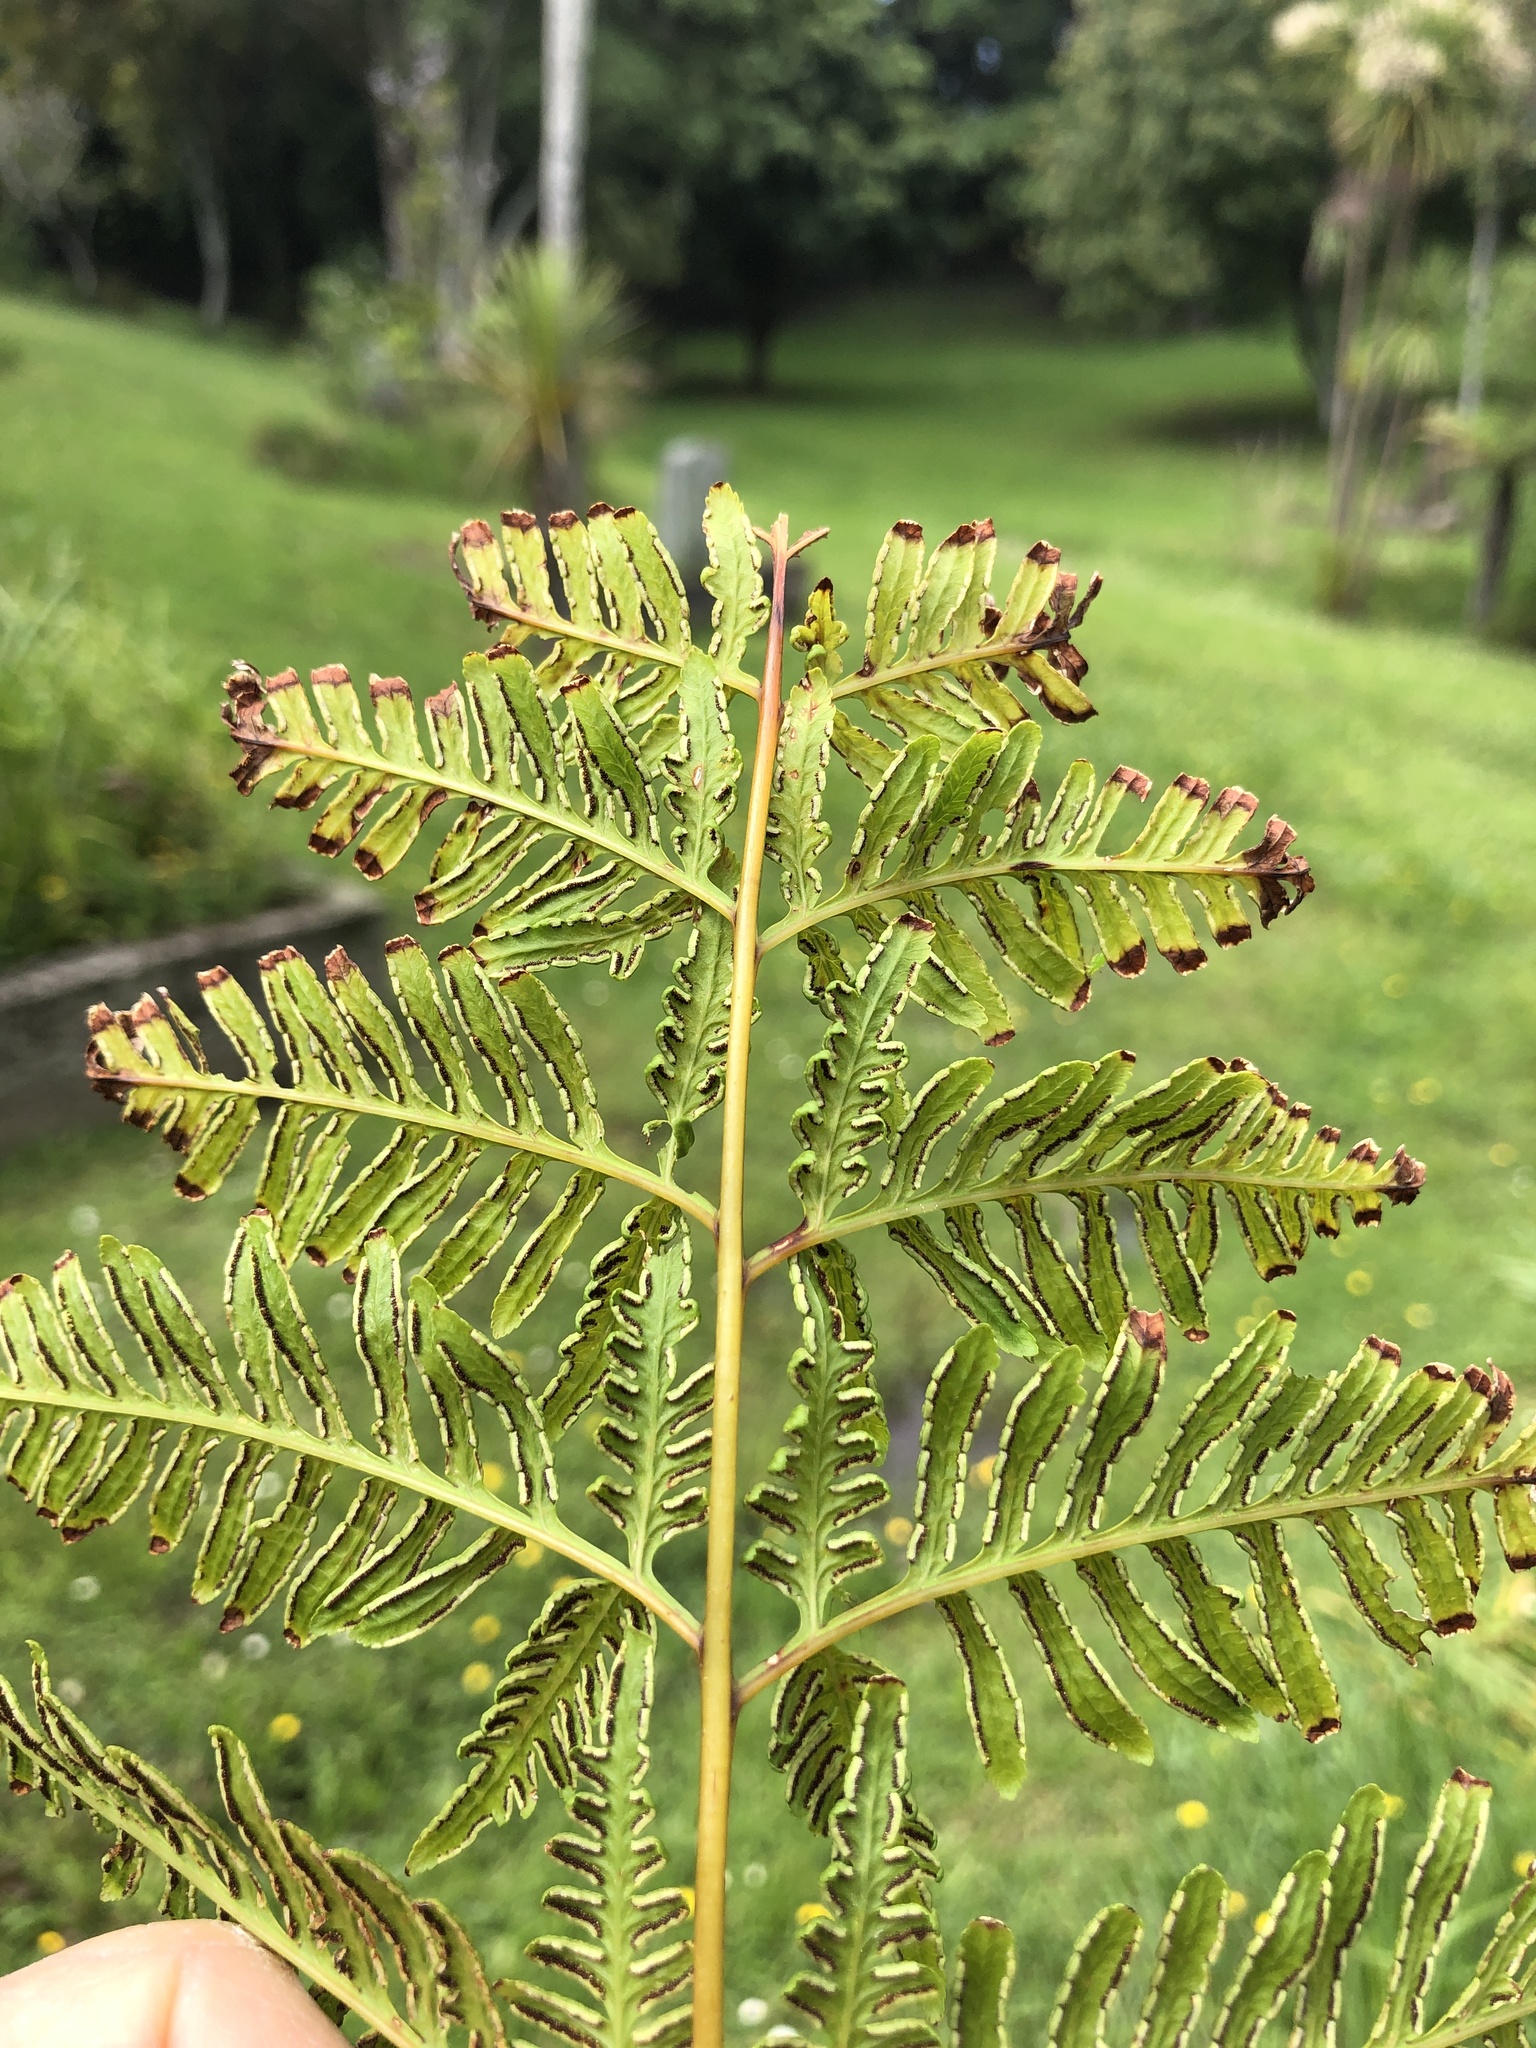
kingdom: Plantae
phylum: Tracheophyta
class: Polypodiopsida
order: Polypodiales
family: Pteridaceae
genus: Pteris
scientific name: Pteris tremula
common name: Australian brake
